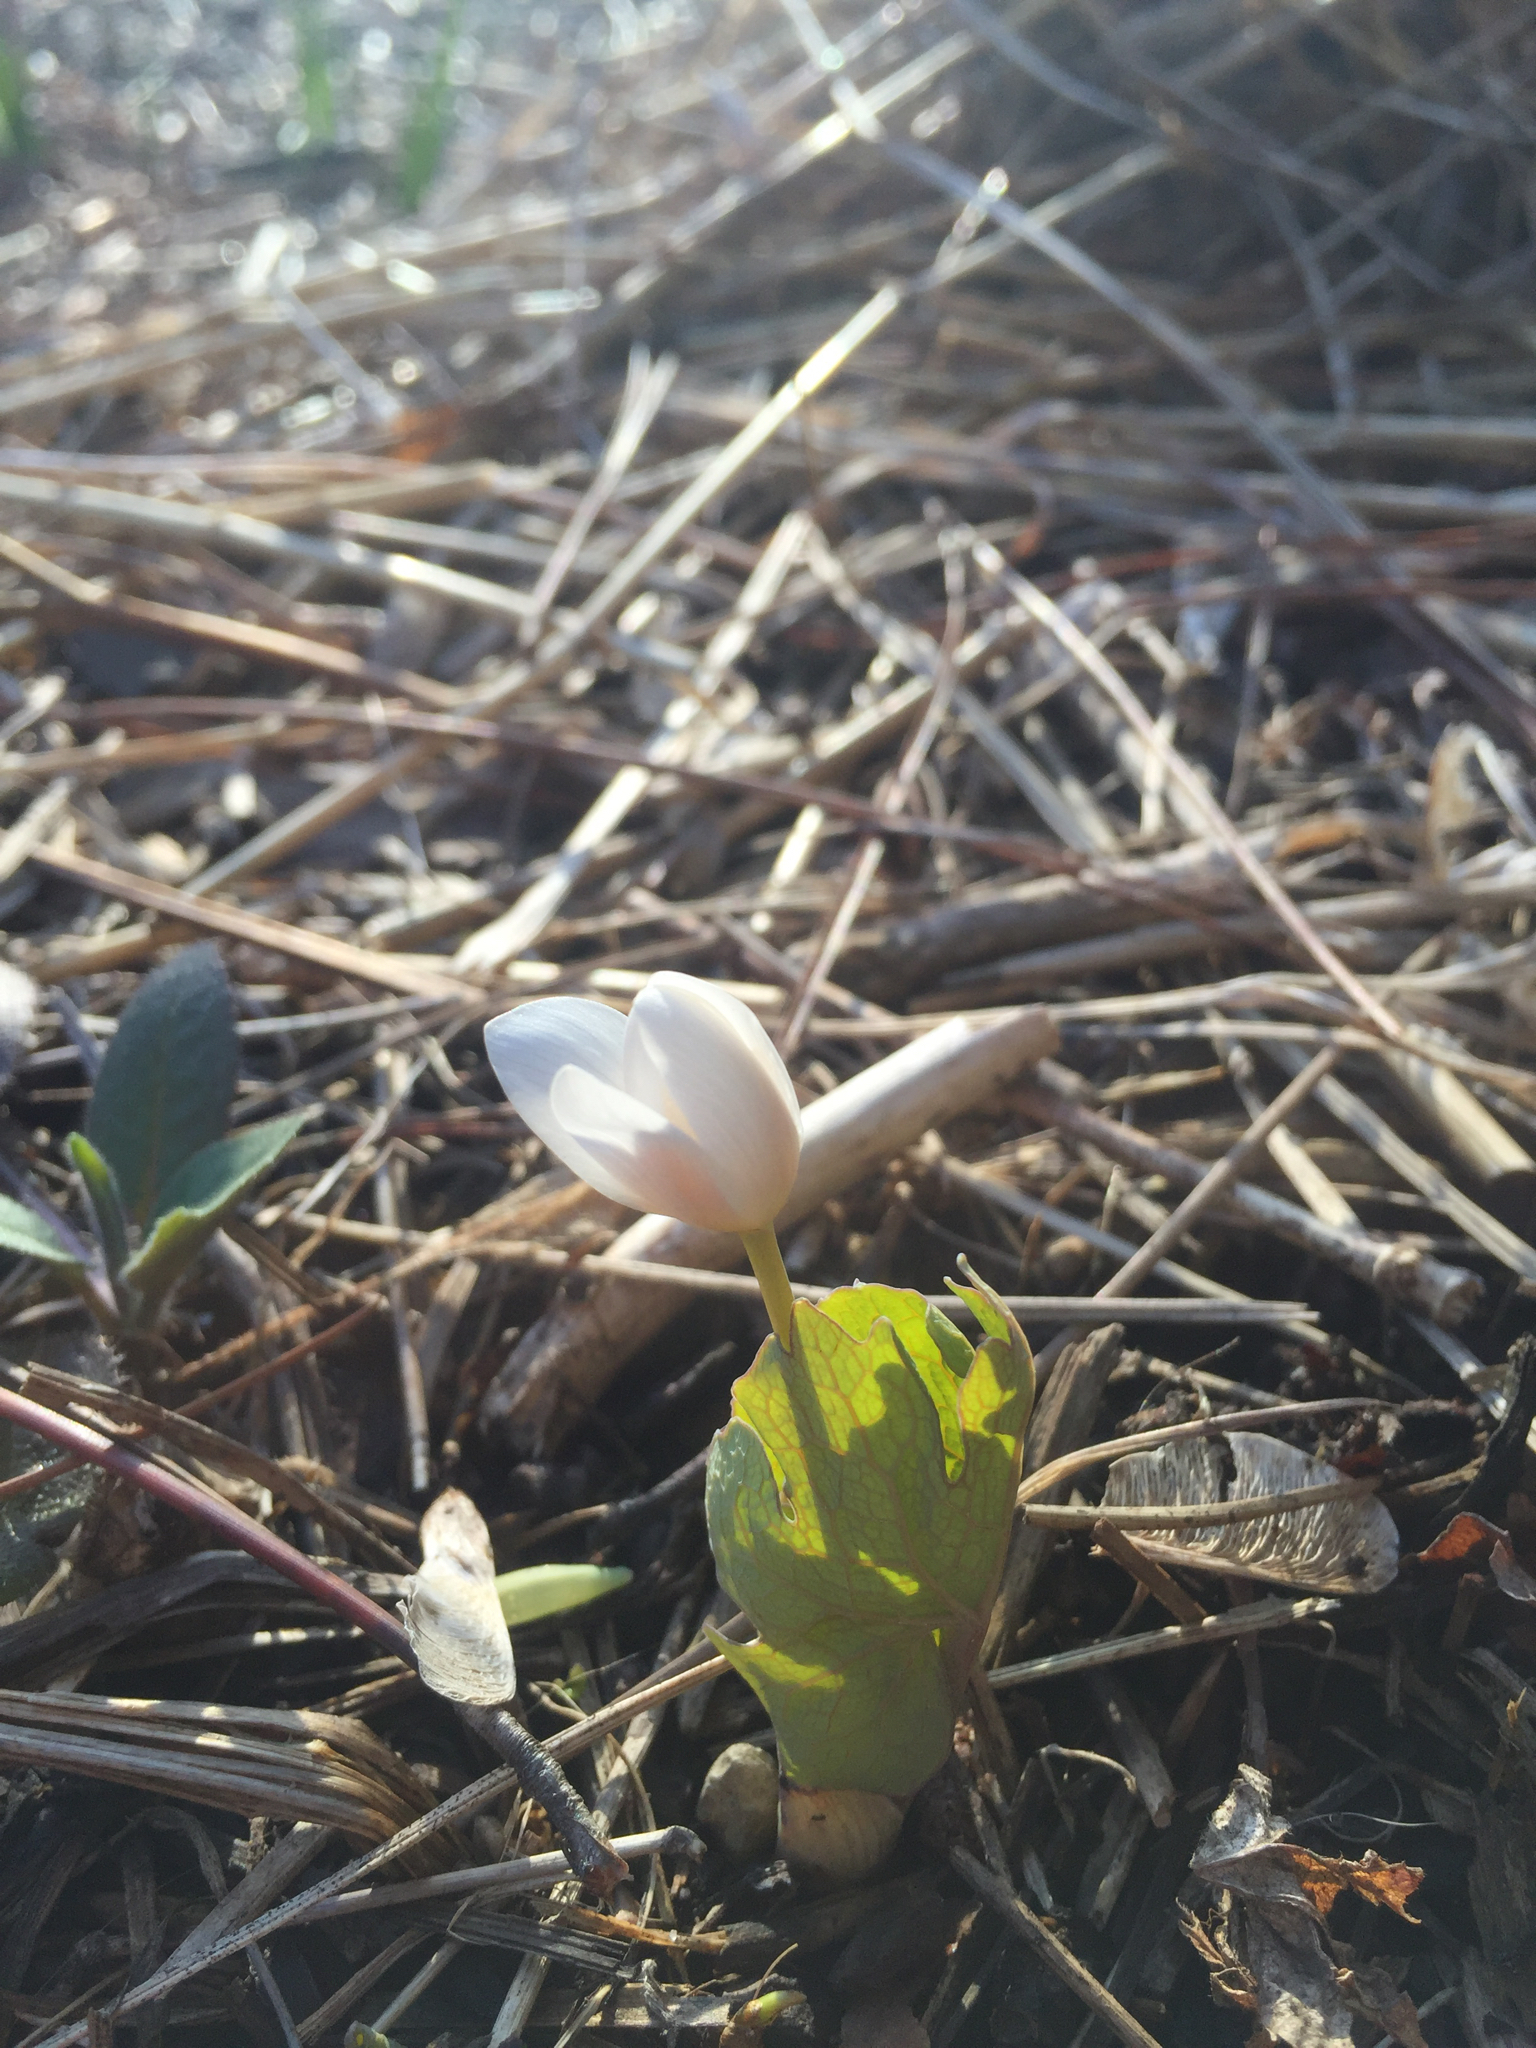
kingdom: Plantae
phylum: Tracheophyta
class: Magnoliopsida
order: Ranunculales
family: Papaveraceae
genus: Sanguinaria
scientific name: Sanguinaria canadensis
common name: Bloodroot
